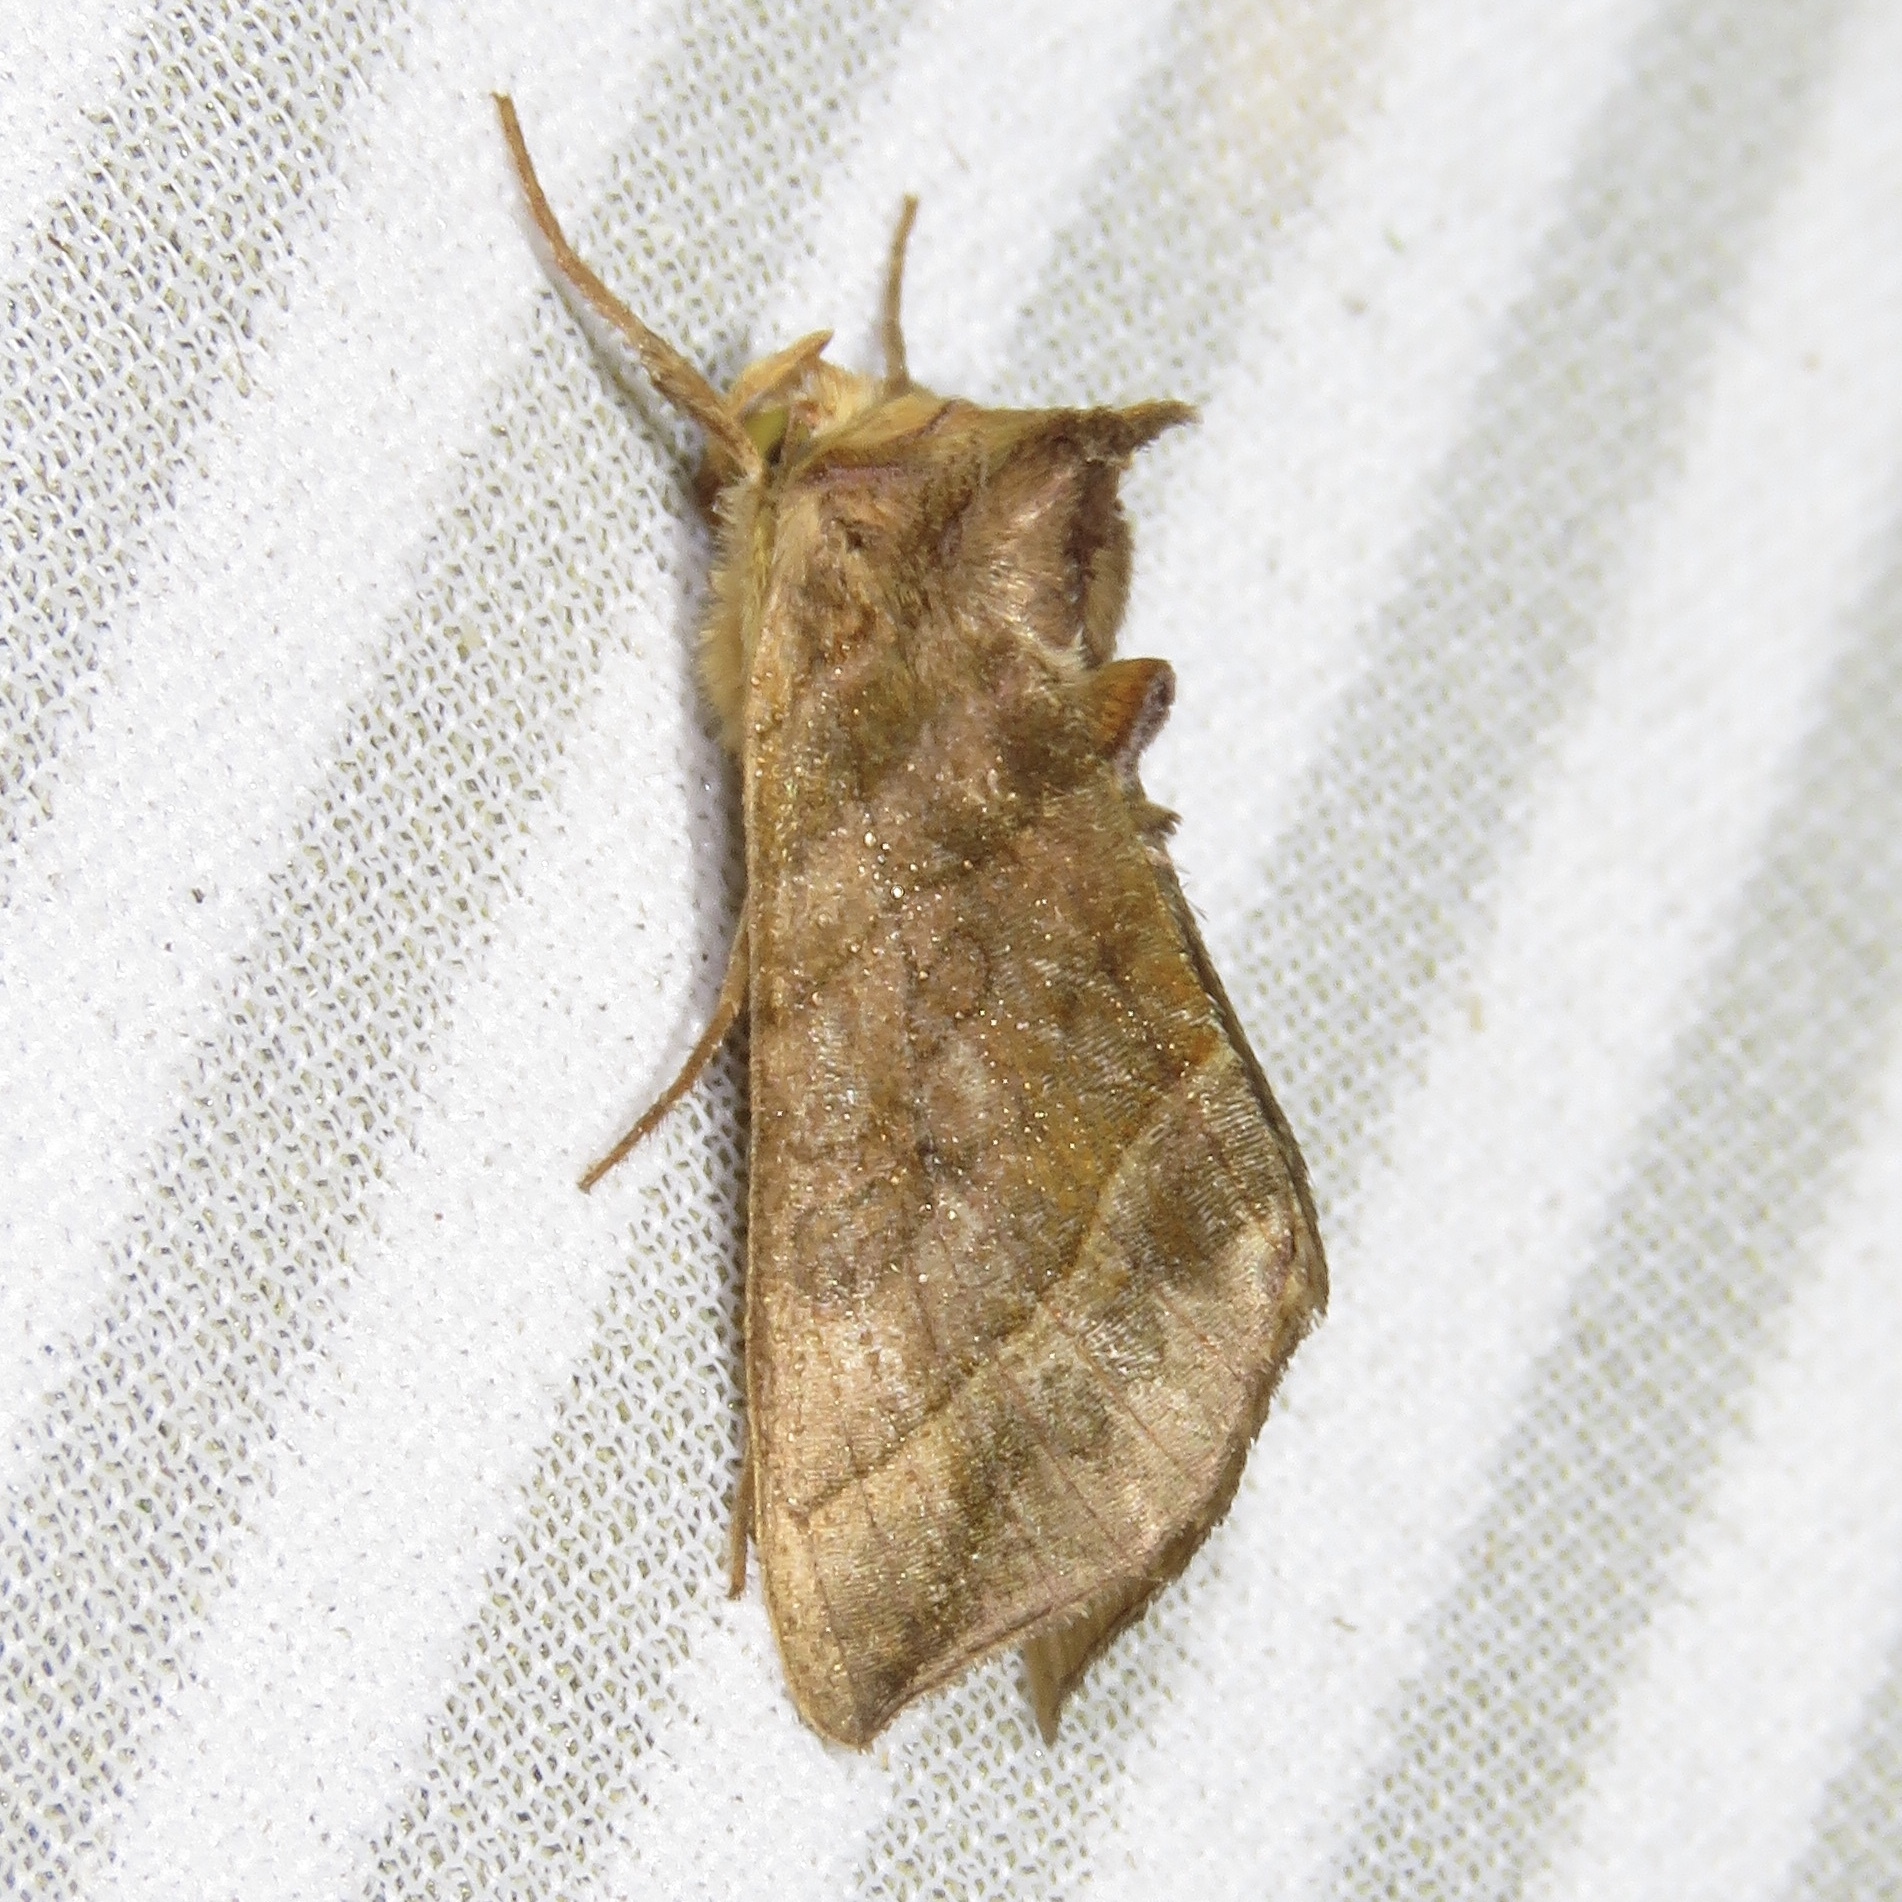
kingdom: Animalia
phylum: Arthropoda
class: Insecta
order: Lepidoptera
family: Noctuidae
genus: Diachrysia
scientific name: Diachrysia aereoides
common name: Dark-spotted looper moth
